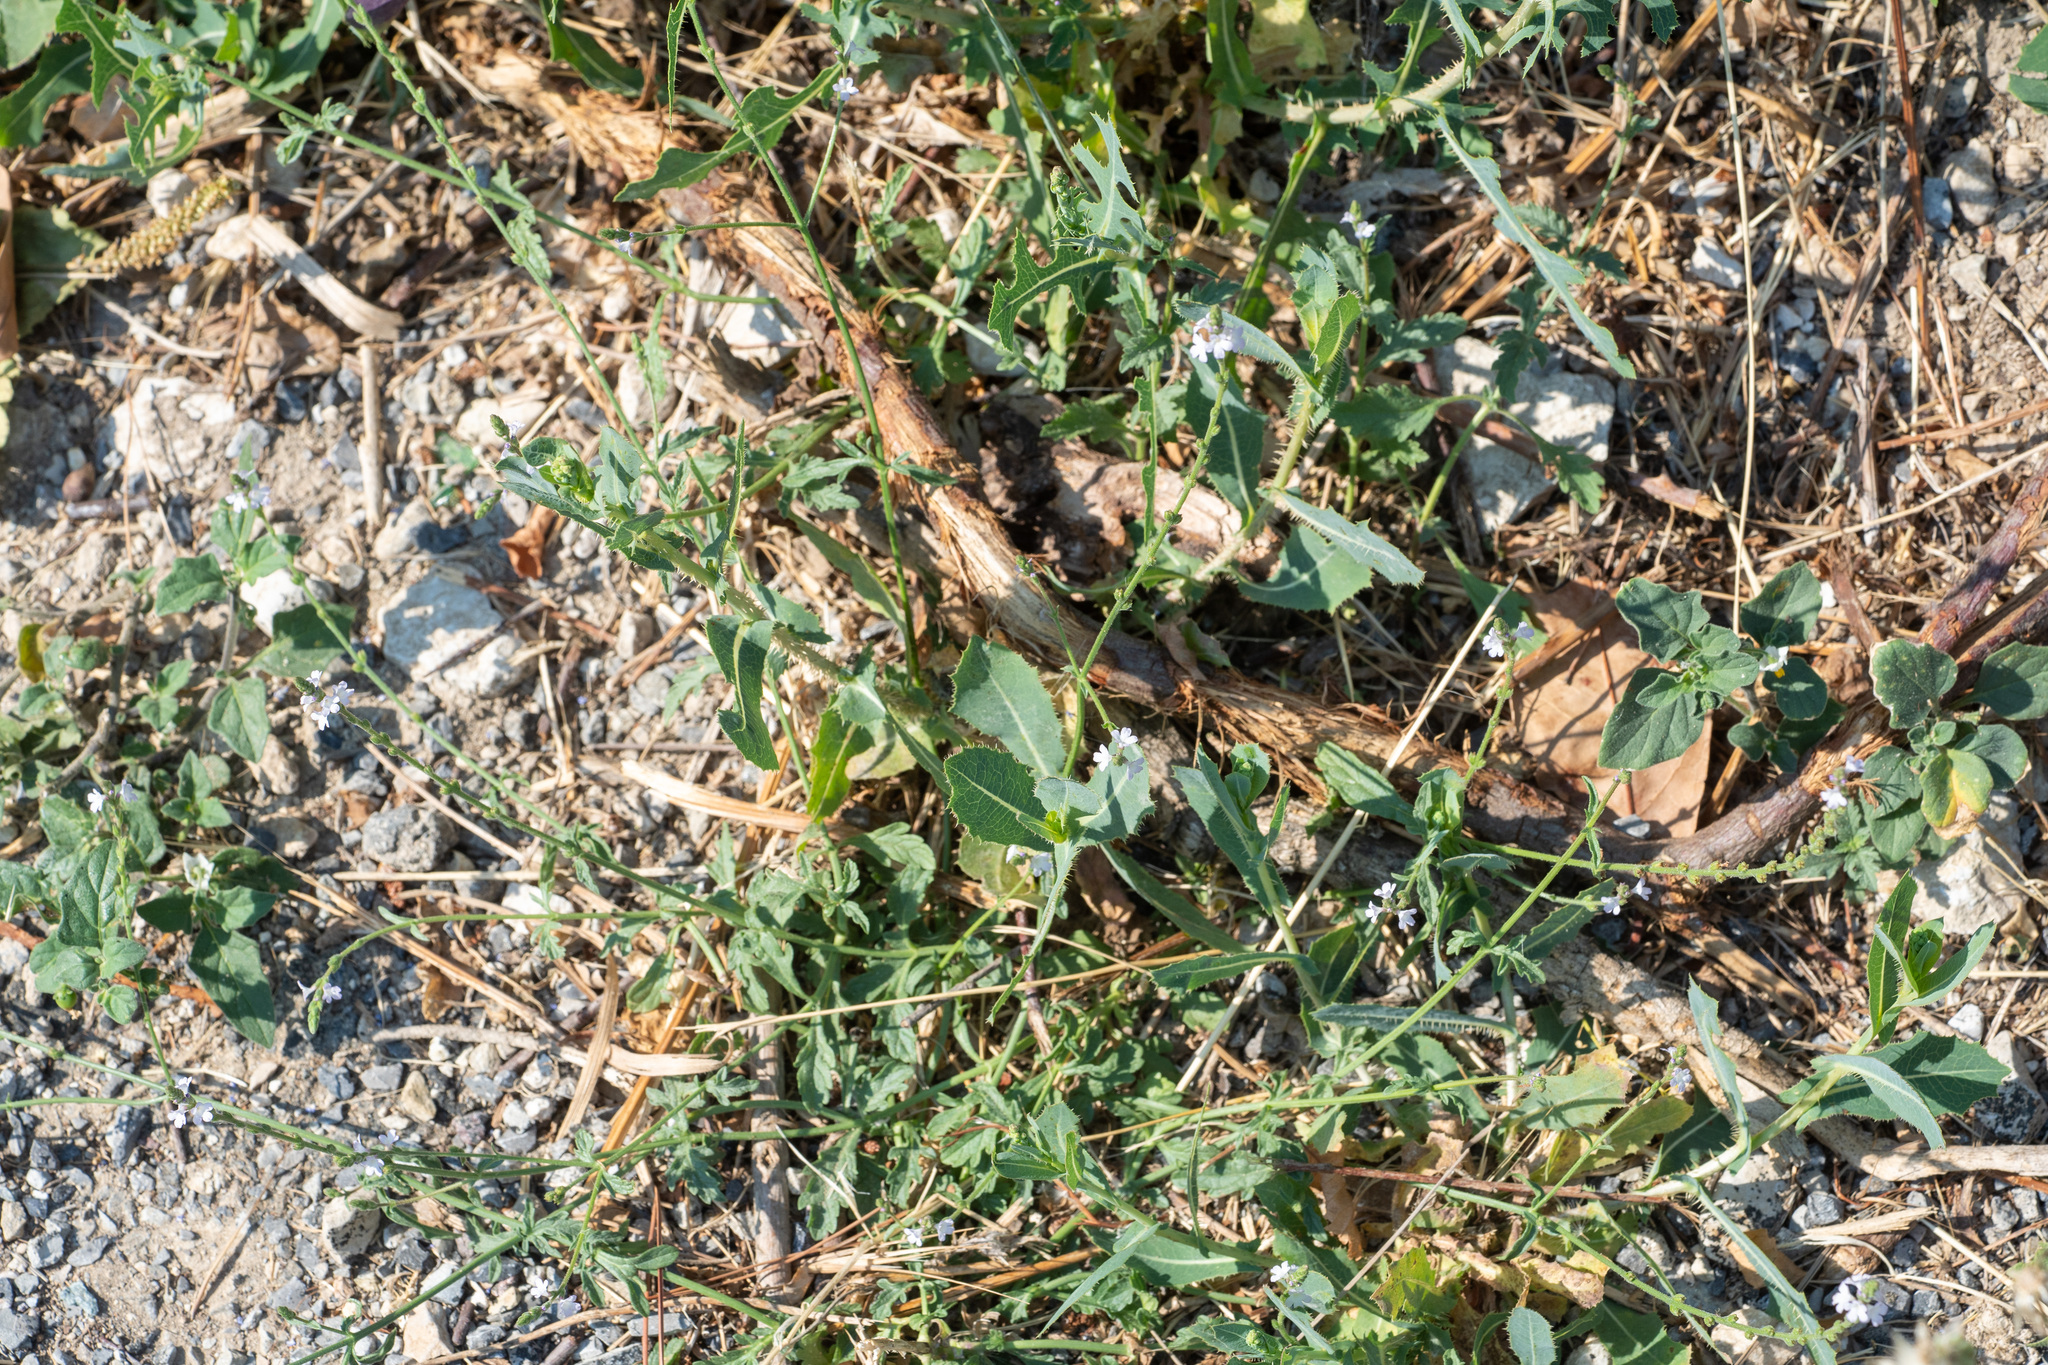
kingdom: Plantae
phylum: Tracheophyta
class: Magnoliopsida
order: Lamiales
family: Verbenaceae
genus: Verbena
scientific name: Verbena officinalis
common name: Vervain
